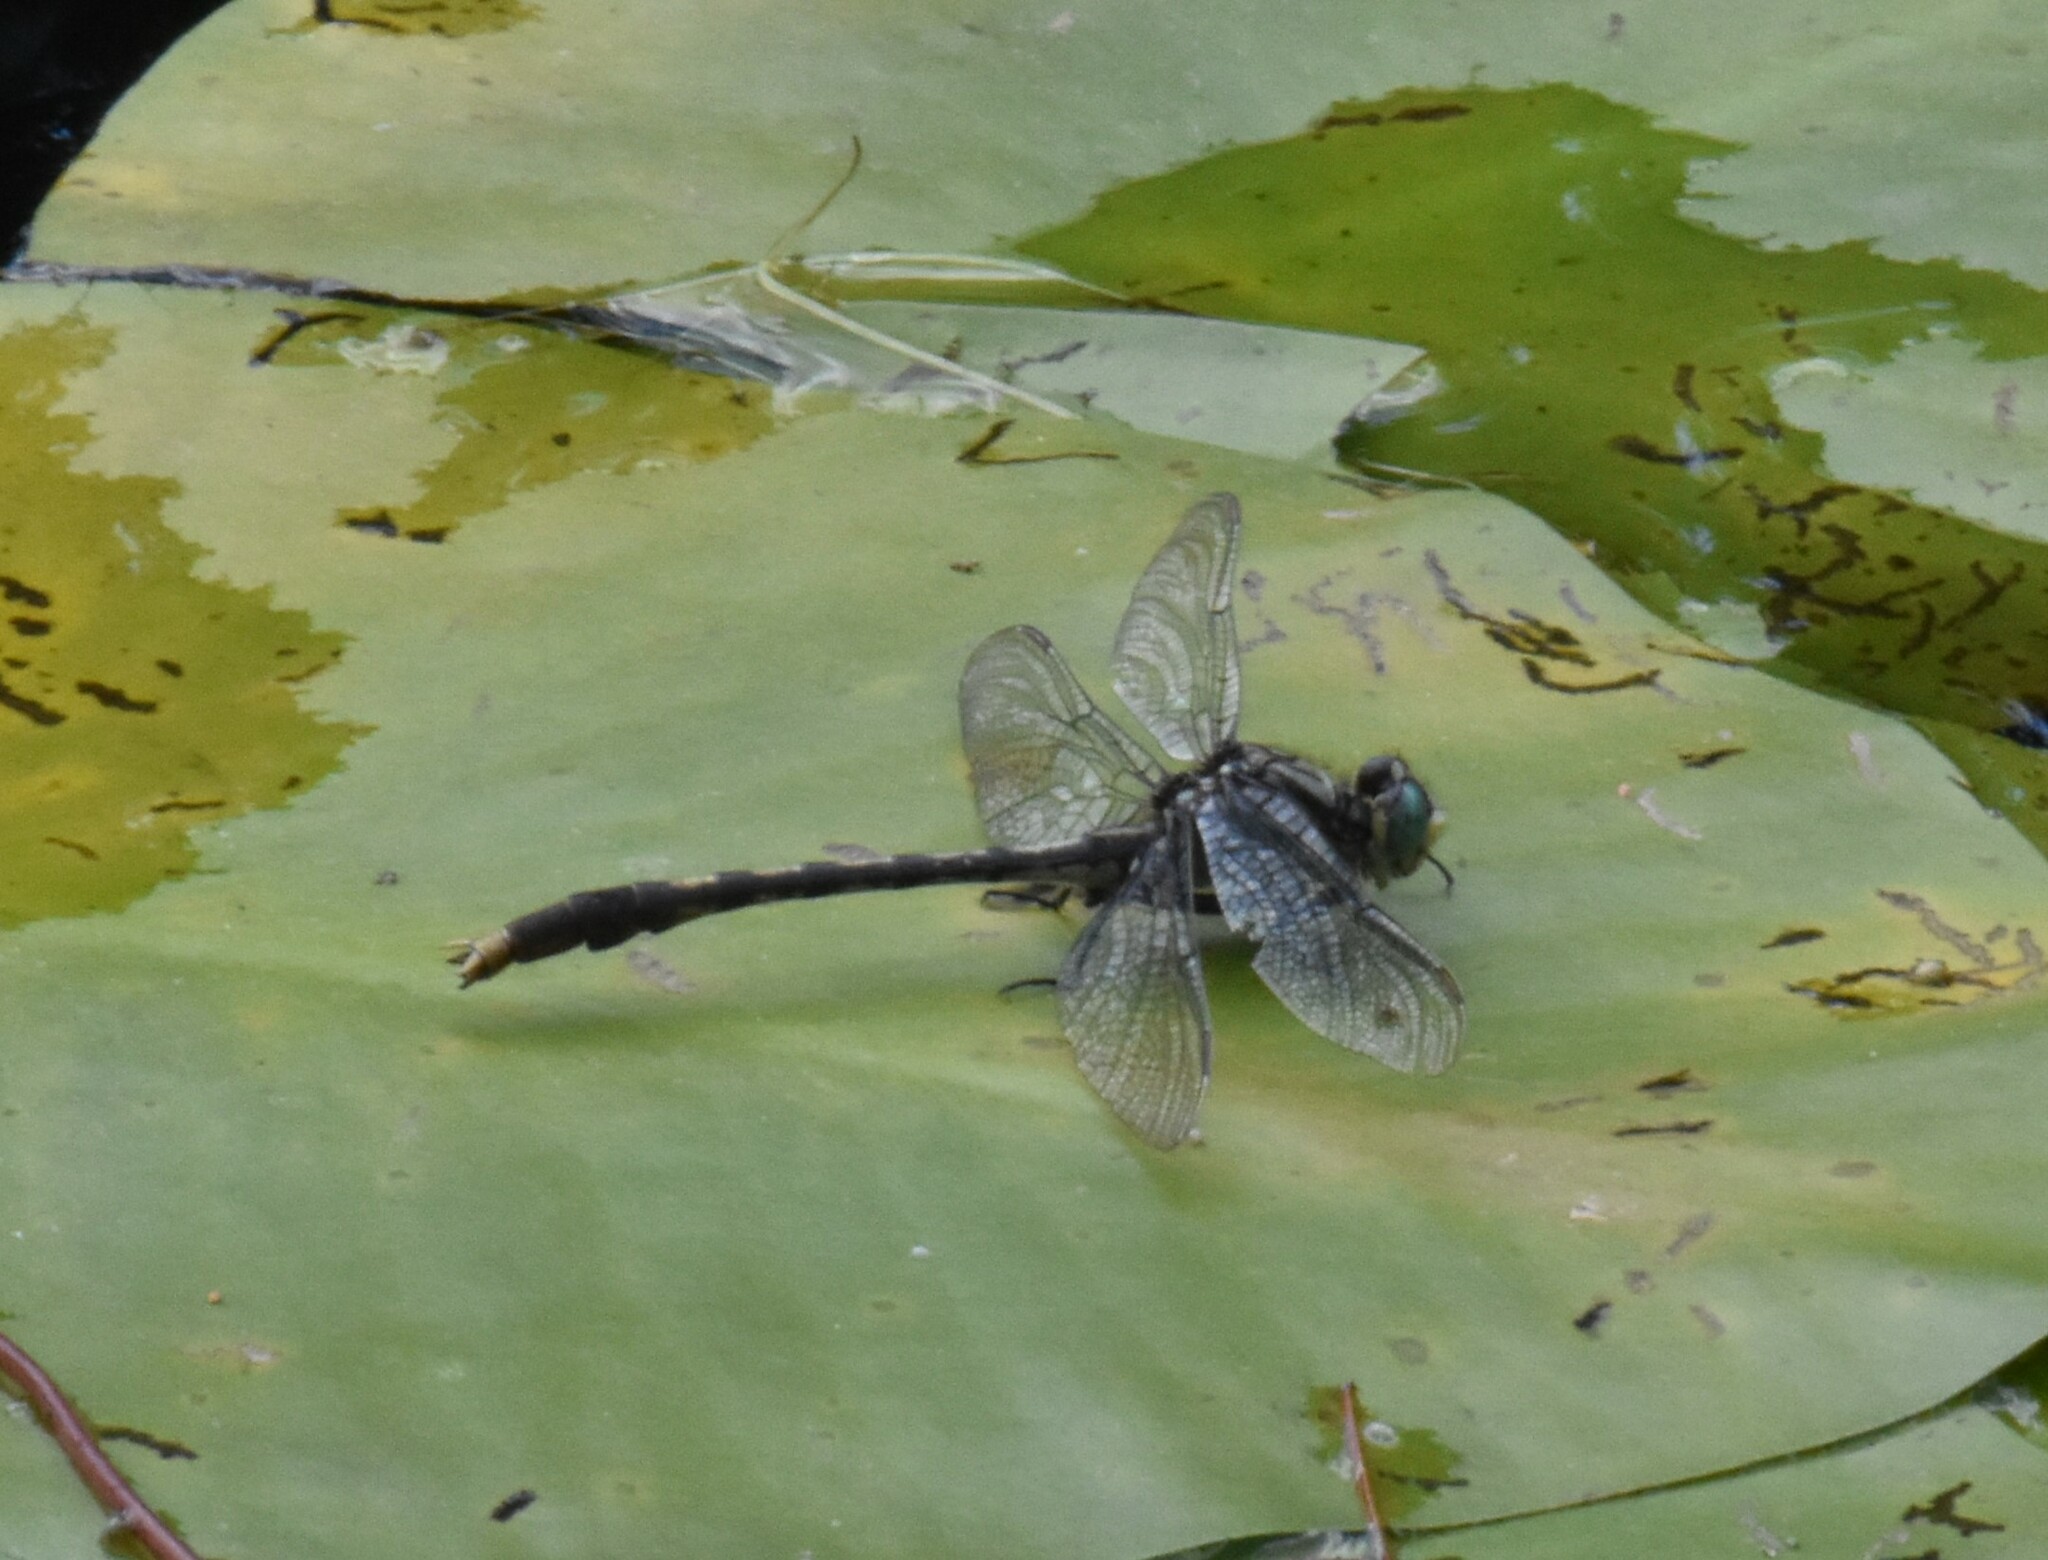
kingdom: Animalia
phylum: Arthropoda
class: Insecta
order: Odonata
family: Gomphidae
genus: Arigomphus
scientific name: Arigomphus villosipes
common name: Unicorn clubtail
